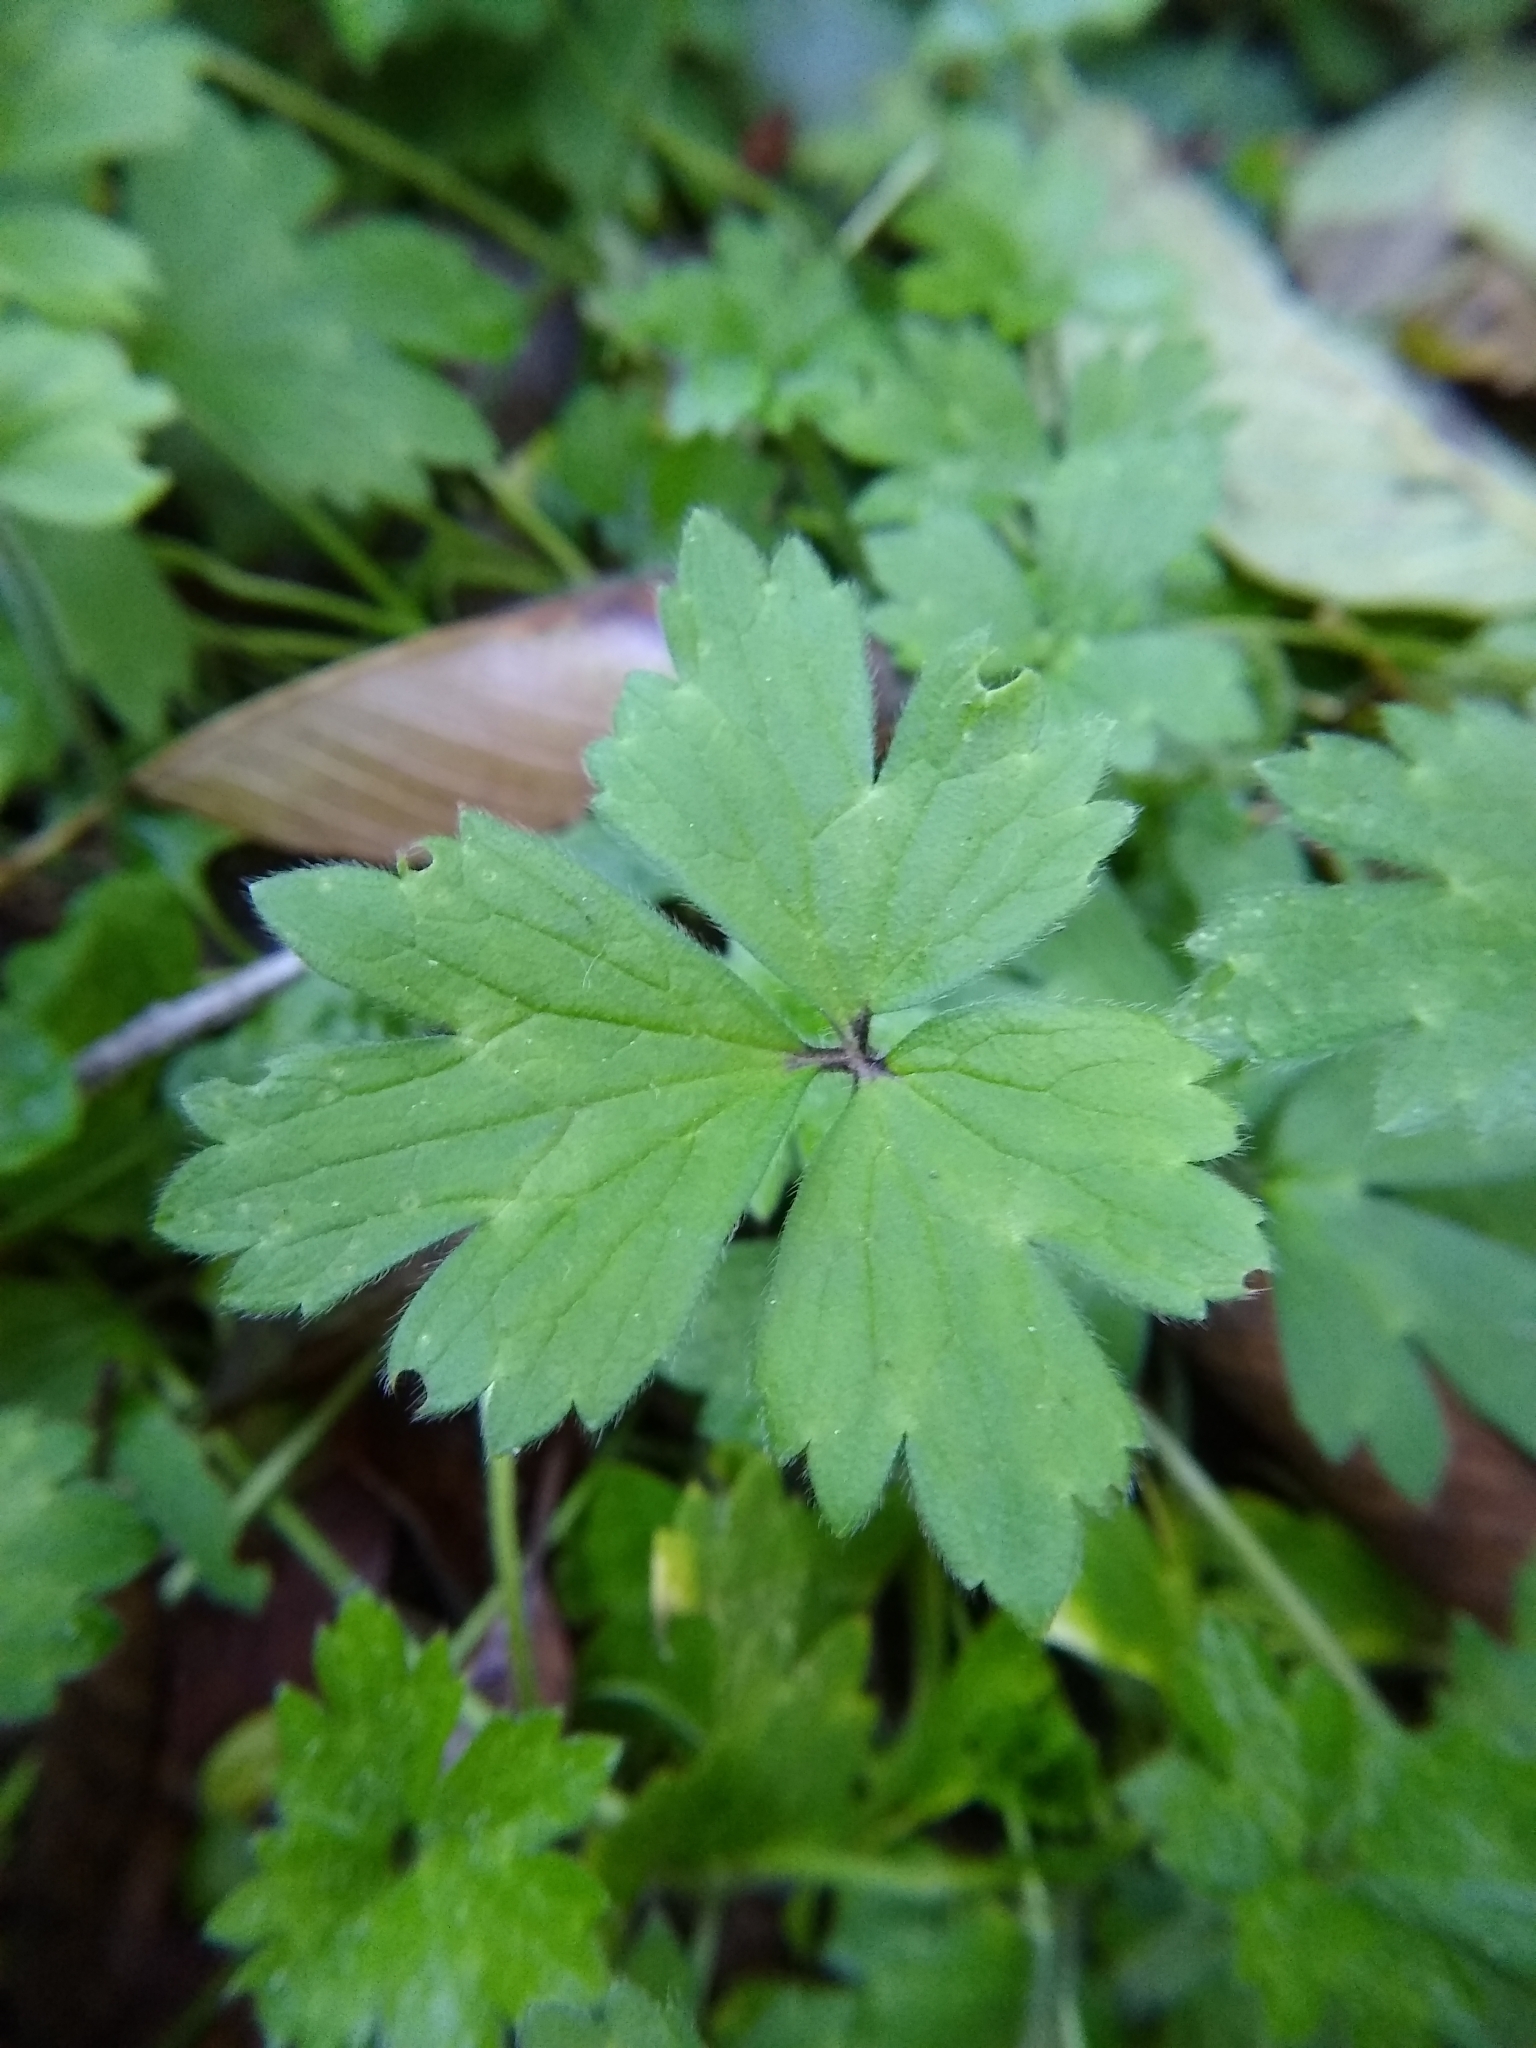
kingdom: Plantae
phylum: Tracheophyta
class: Magnoliopsida
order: Ranunculales
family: Ranunculaceae
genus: Ranunculus
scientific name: Ranunculus repens
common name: Creeping buttercup
